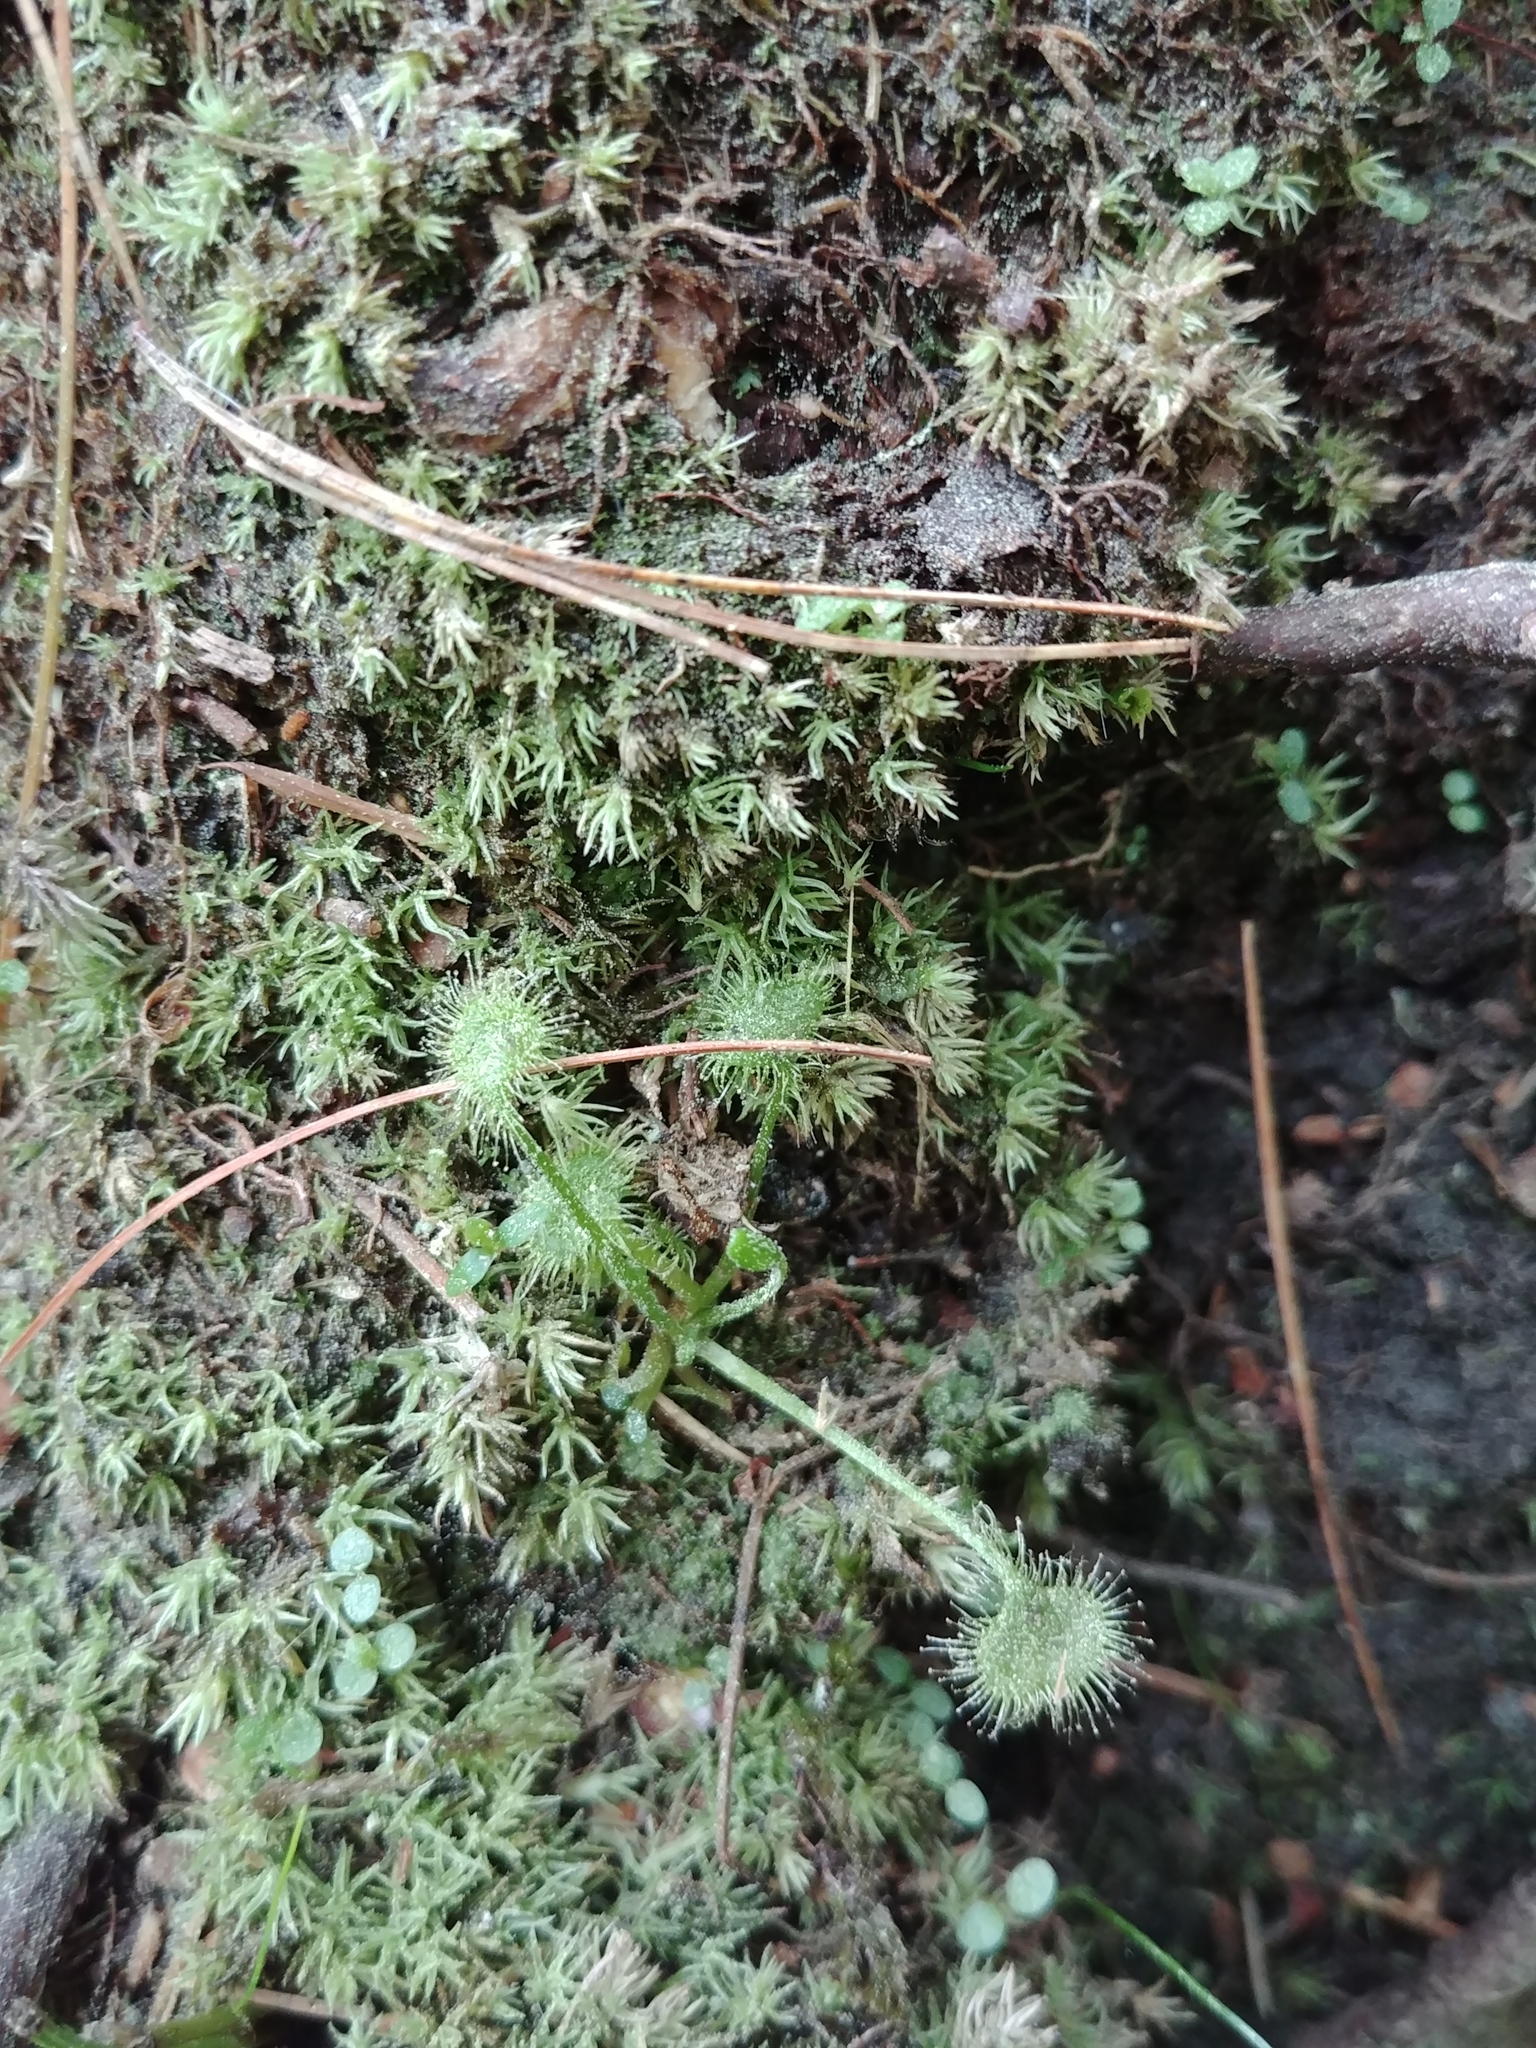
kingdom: Plantae
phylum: Tracheophyta
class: Magnoliopsida
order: Caryophyllales
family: Droseraceae
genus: Drosera
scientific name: Drosera rotundifolia
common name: Round-leaved sundew
